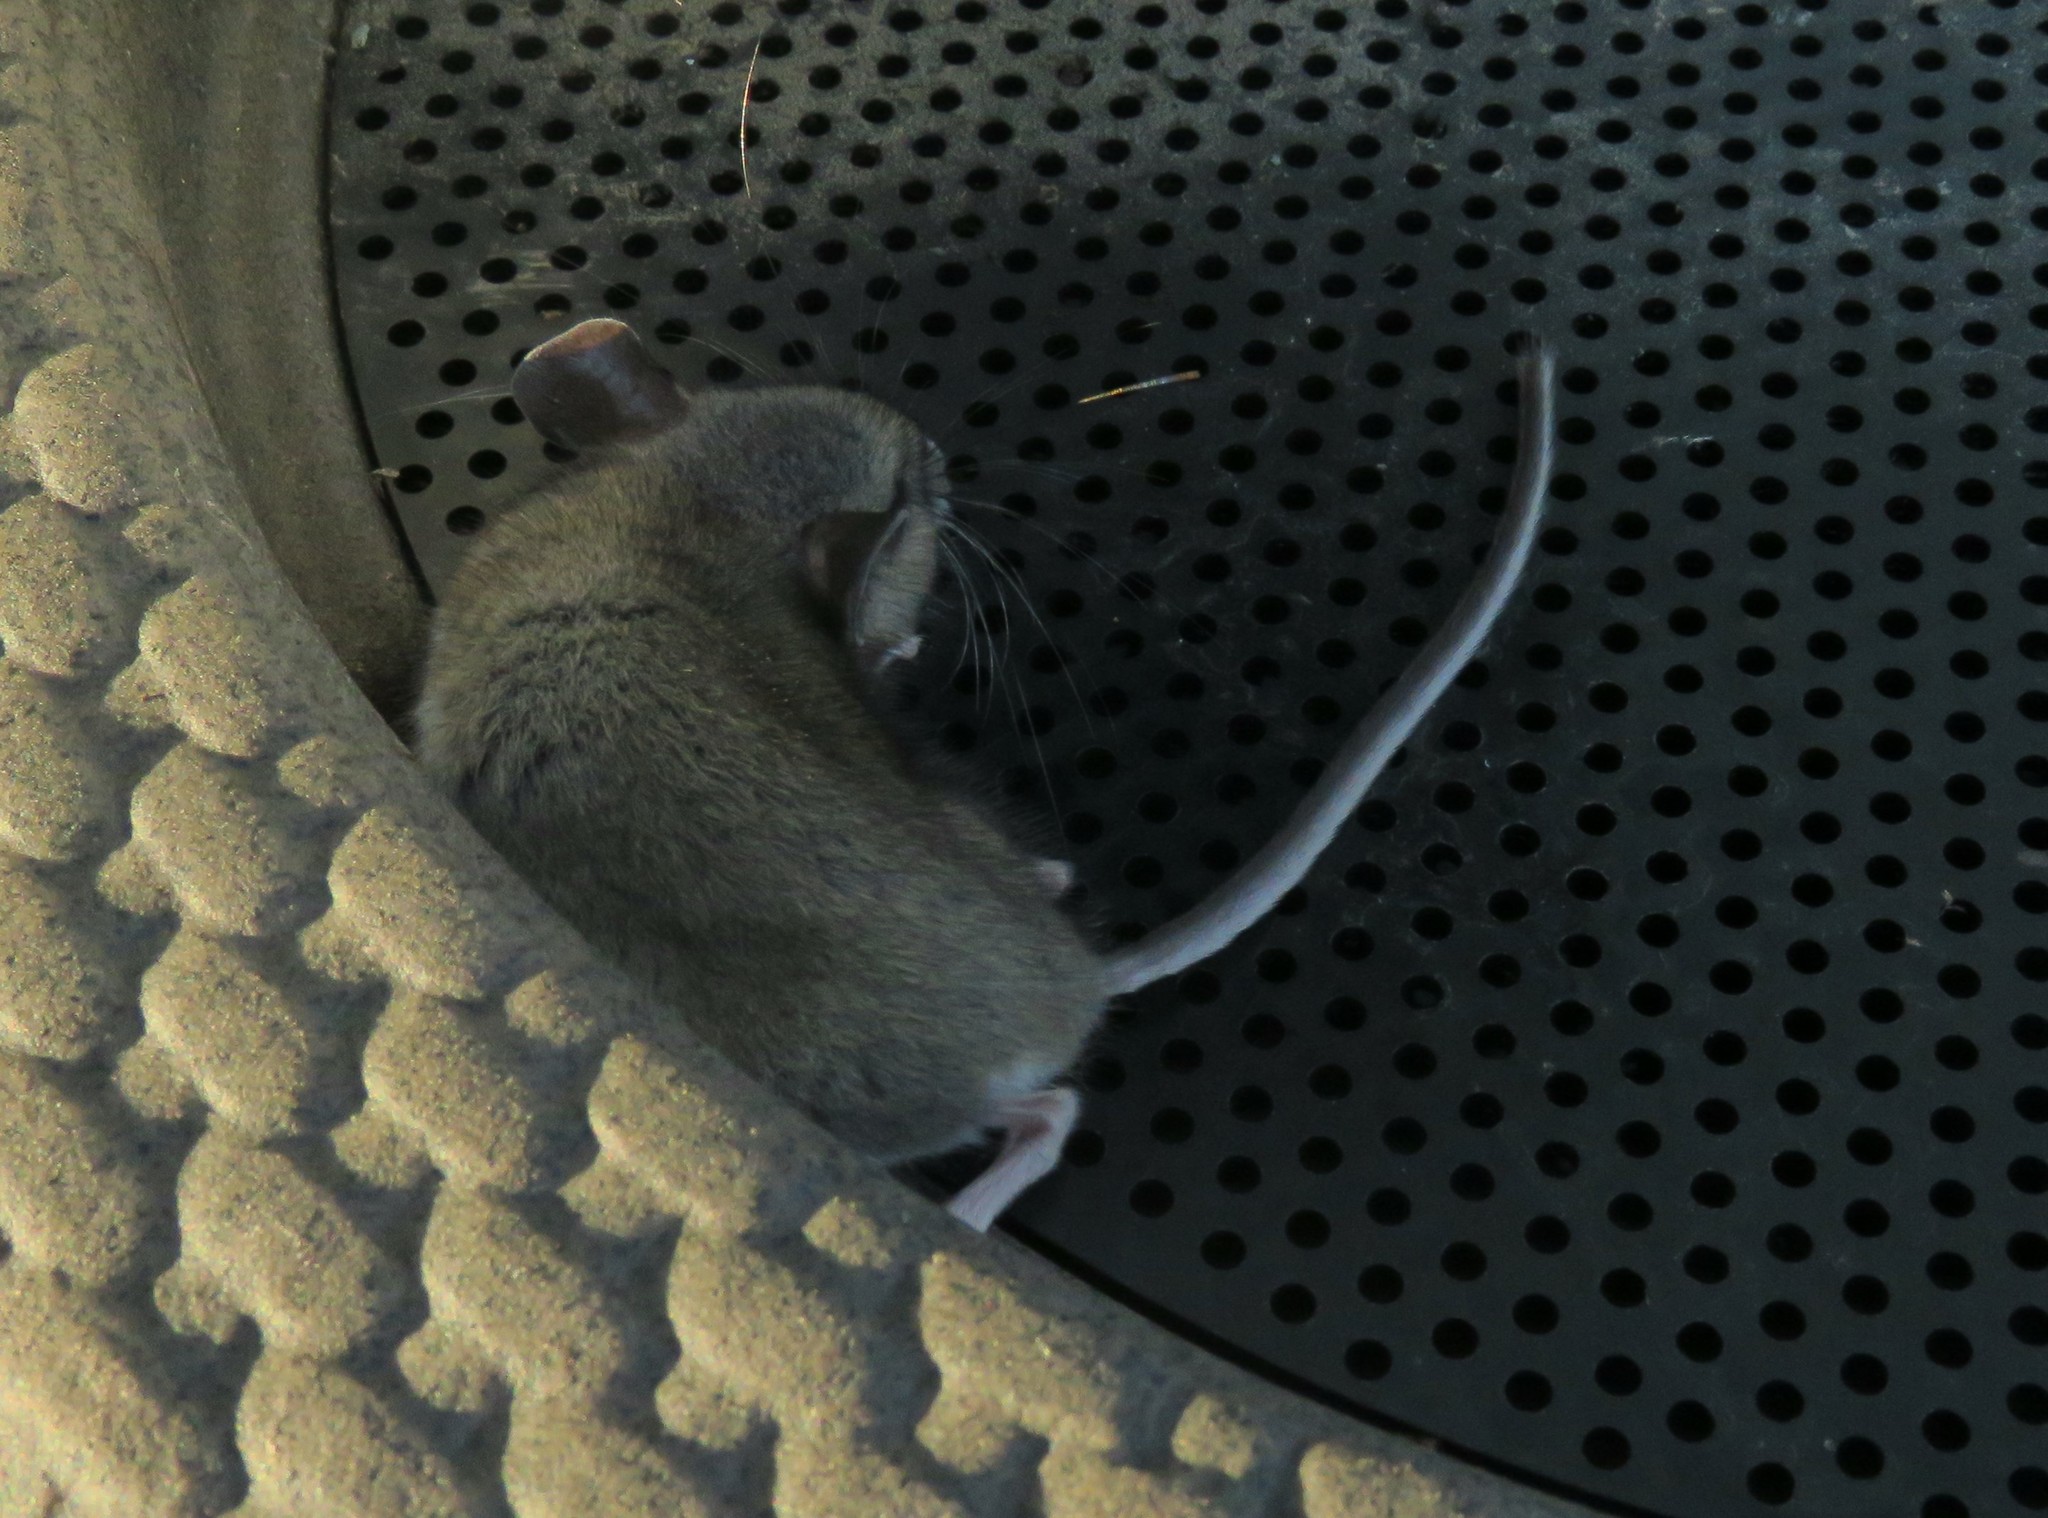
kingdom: Animalia
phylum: Chordata
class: Mammalia
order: Rodentia
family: Cricetidae
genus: Peromyscus
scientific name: Peromyscus maniculatus
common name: Deer mouse
